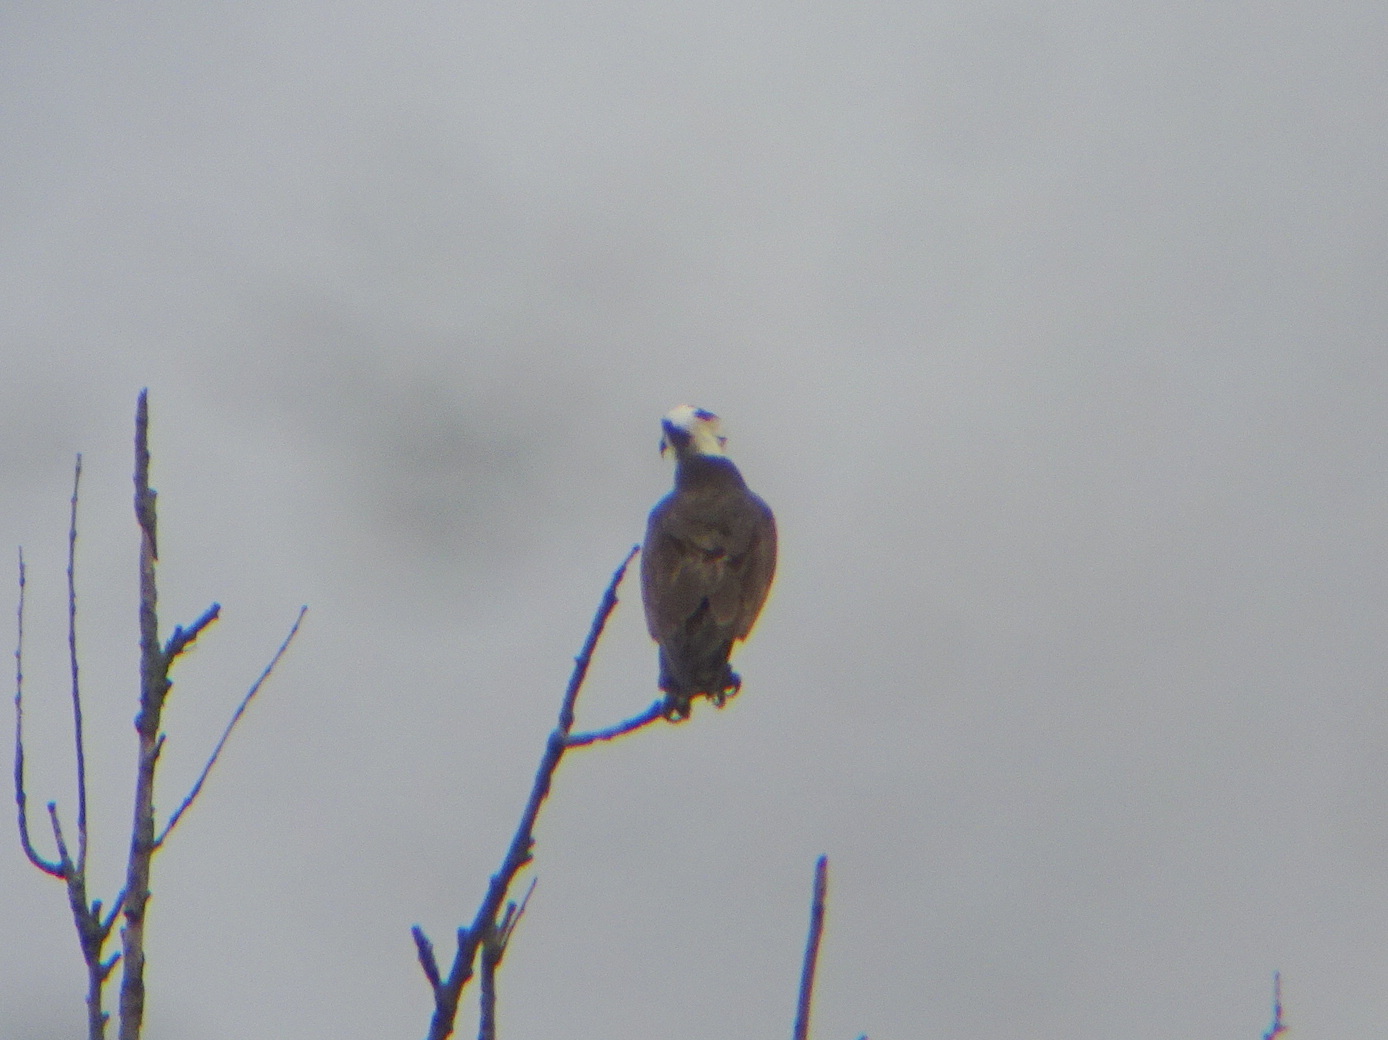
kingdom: Animalia
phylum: Chordata
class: Aves
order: Accipitriformes
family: Pandionidae
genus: Pandion
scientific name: Pandion haliaetus
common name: Osprey
